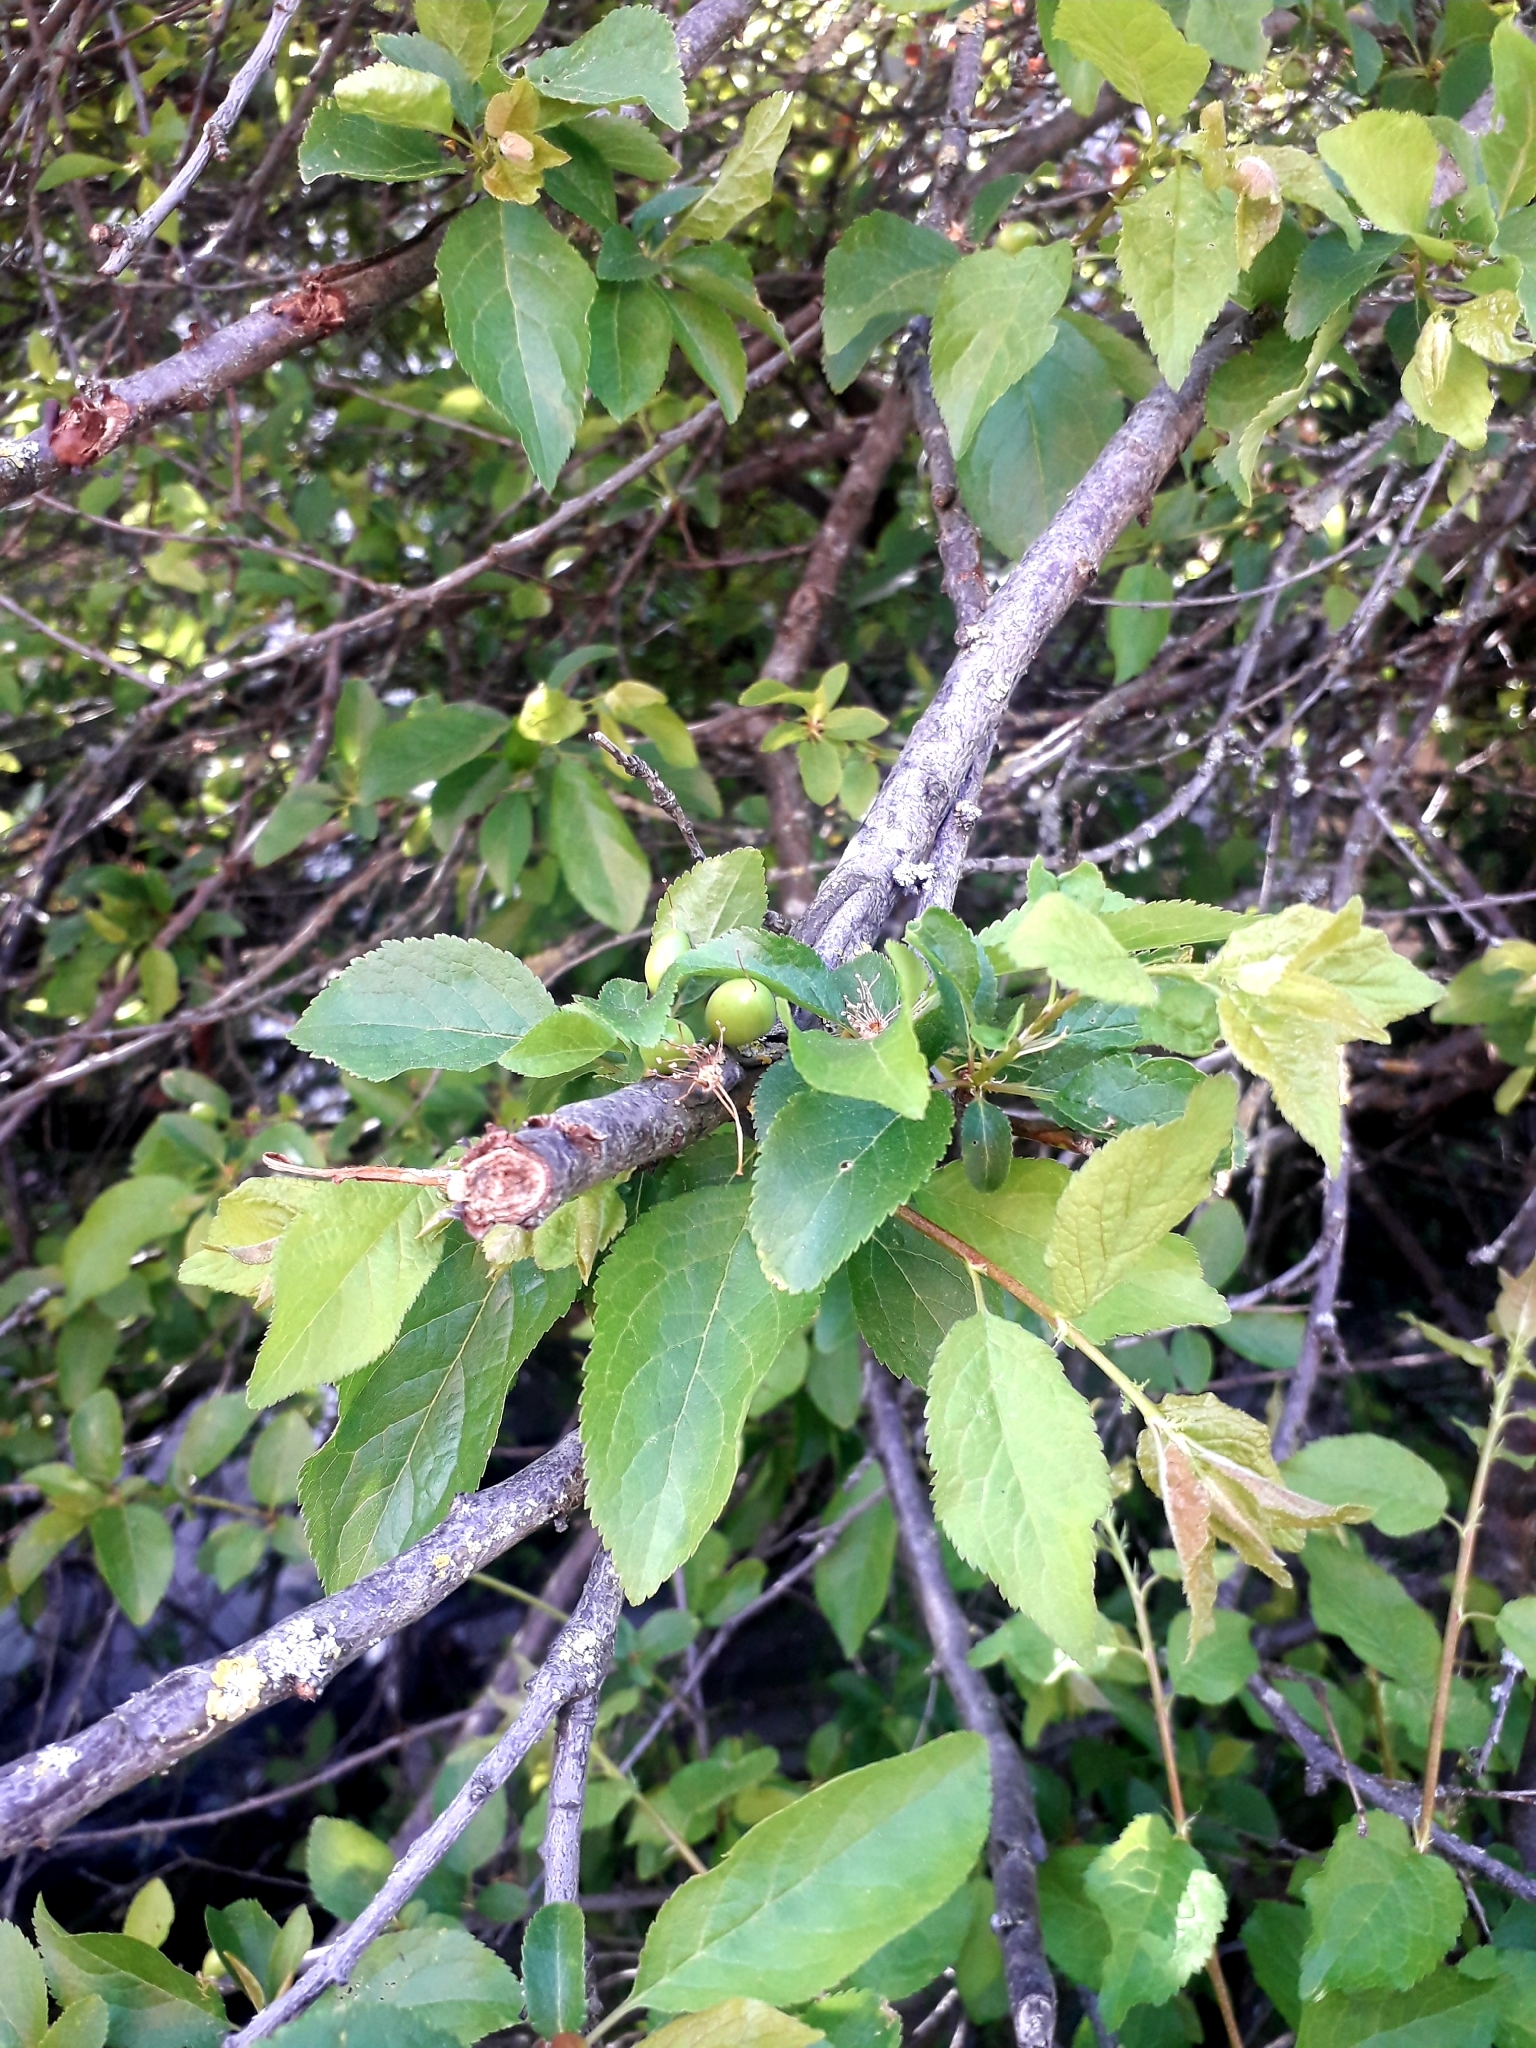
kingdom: Plantae
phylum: Tracheophyta
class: Magnoliopsida
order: Rosales
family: Rosaceae
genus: Prunus
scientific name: Prunus domestica
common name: Wild plum
